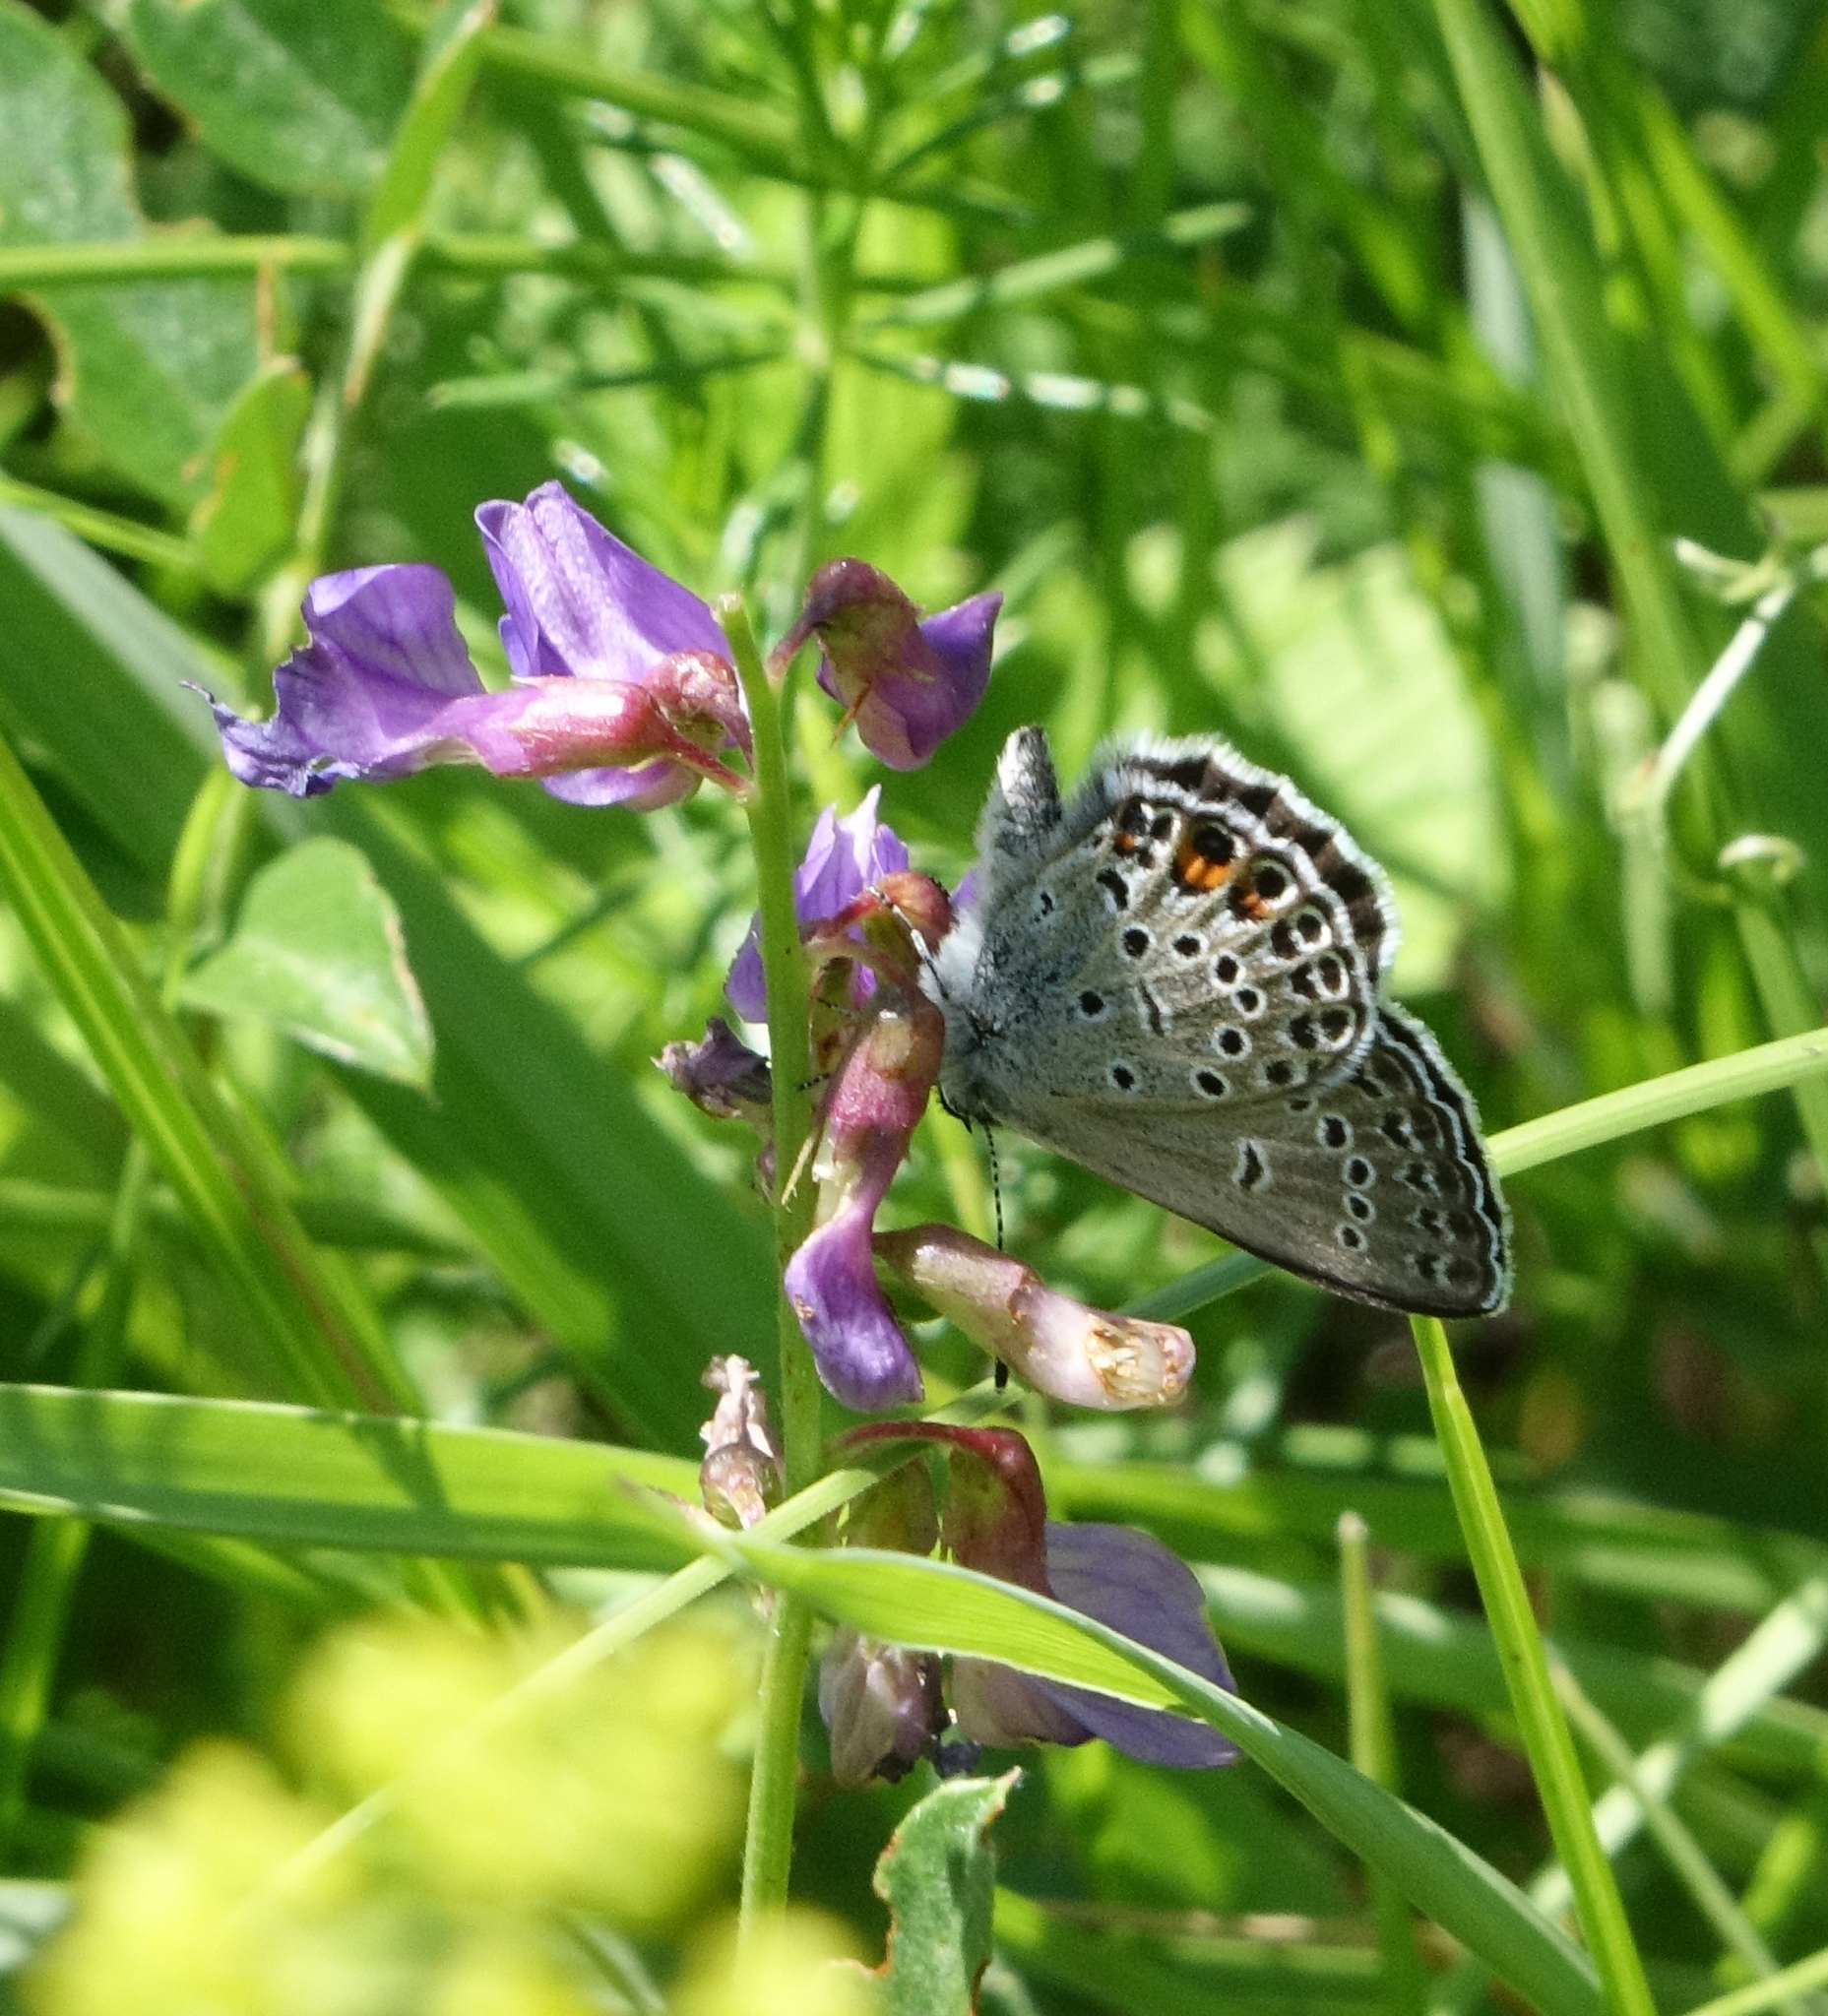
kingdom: Animalia
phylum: Arthropoda
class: Insecta
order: Lepidoptera
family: Lycaenidae
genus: Vacciniina
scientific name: Vacciniina optilete
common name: Cranberry blue
